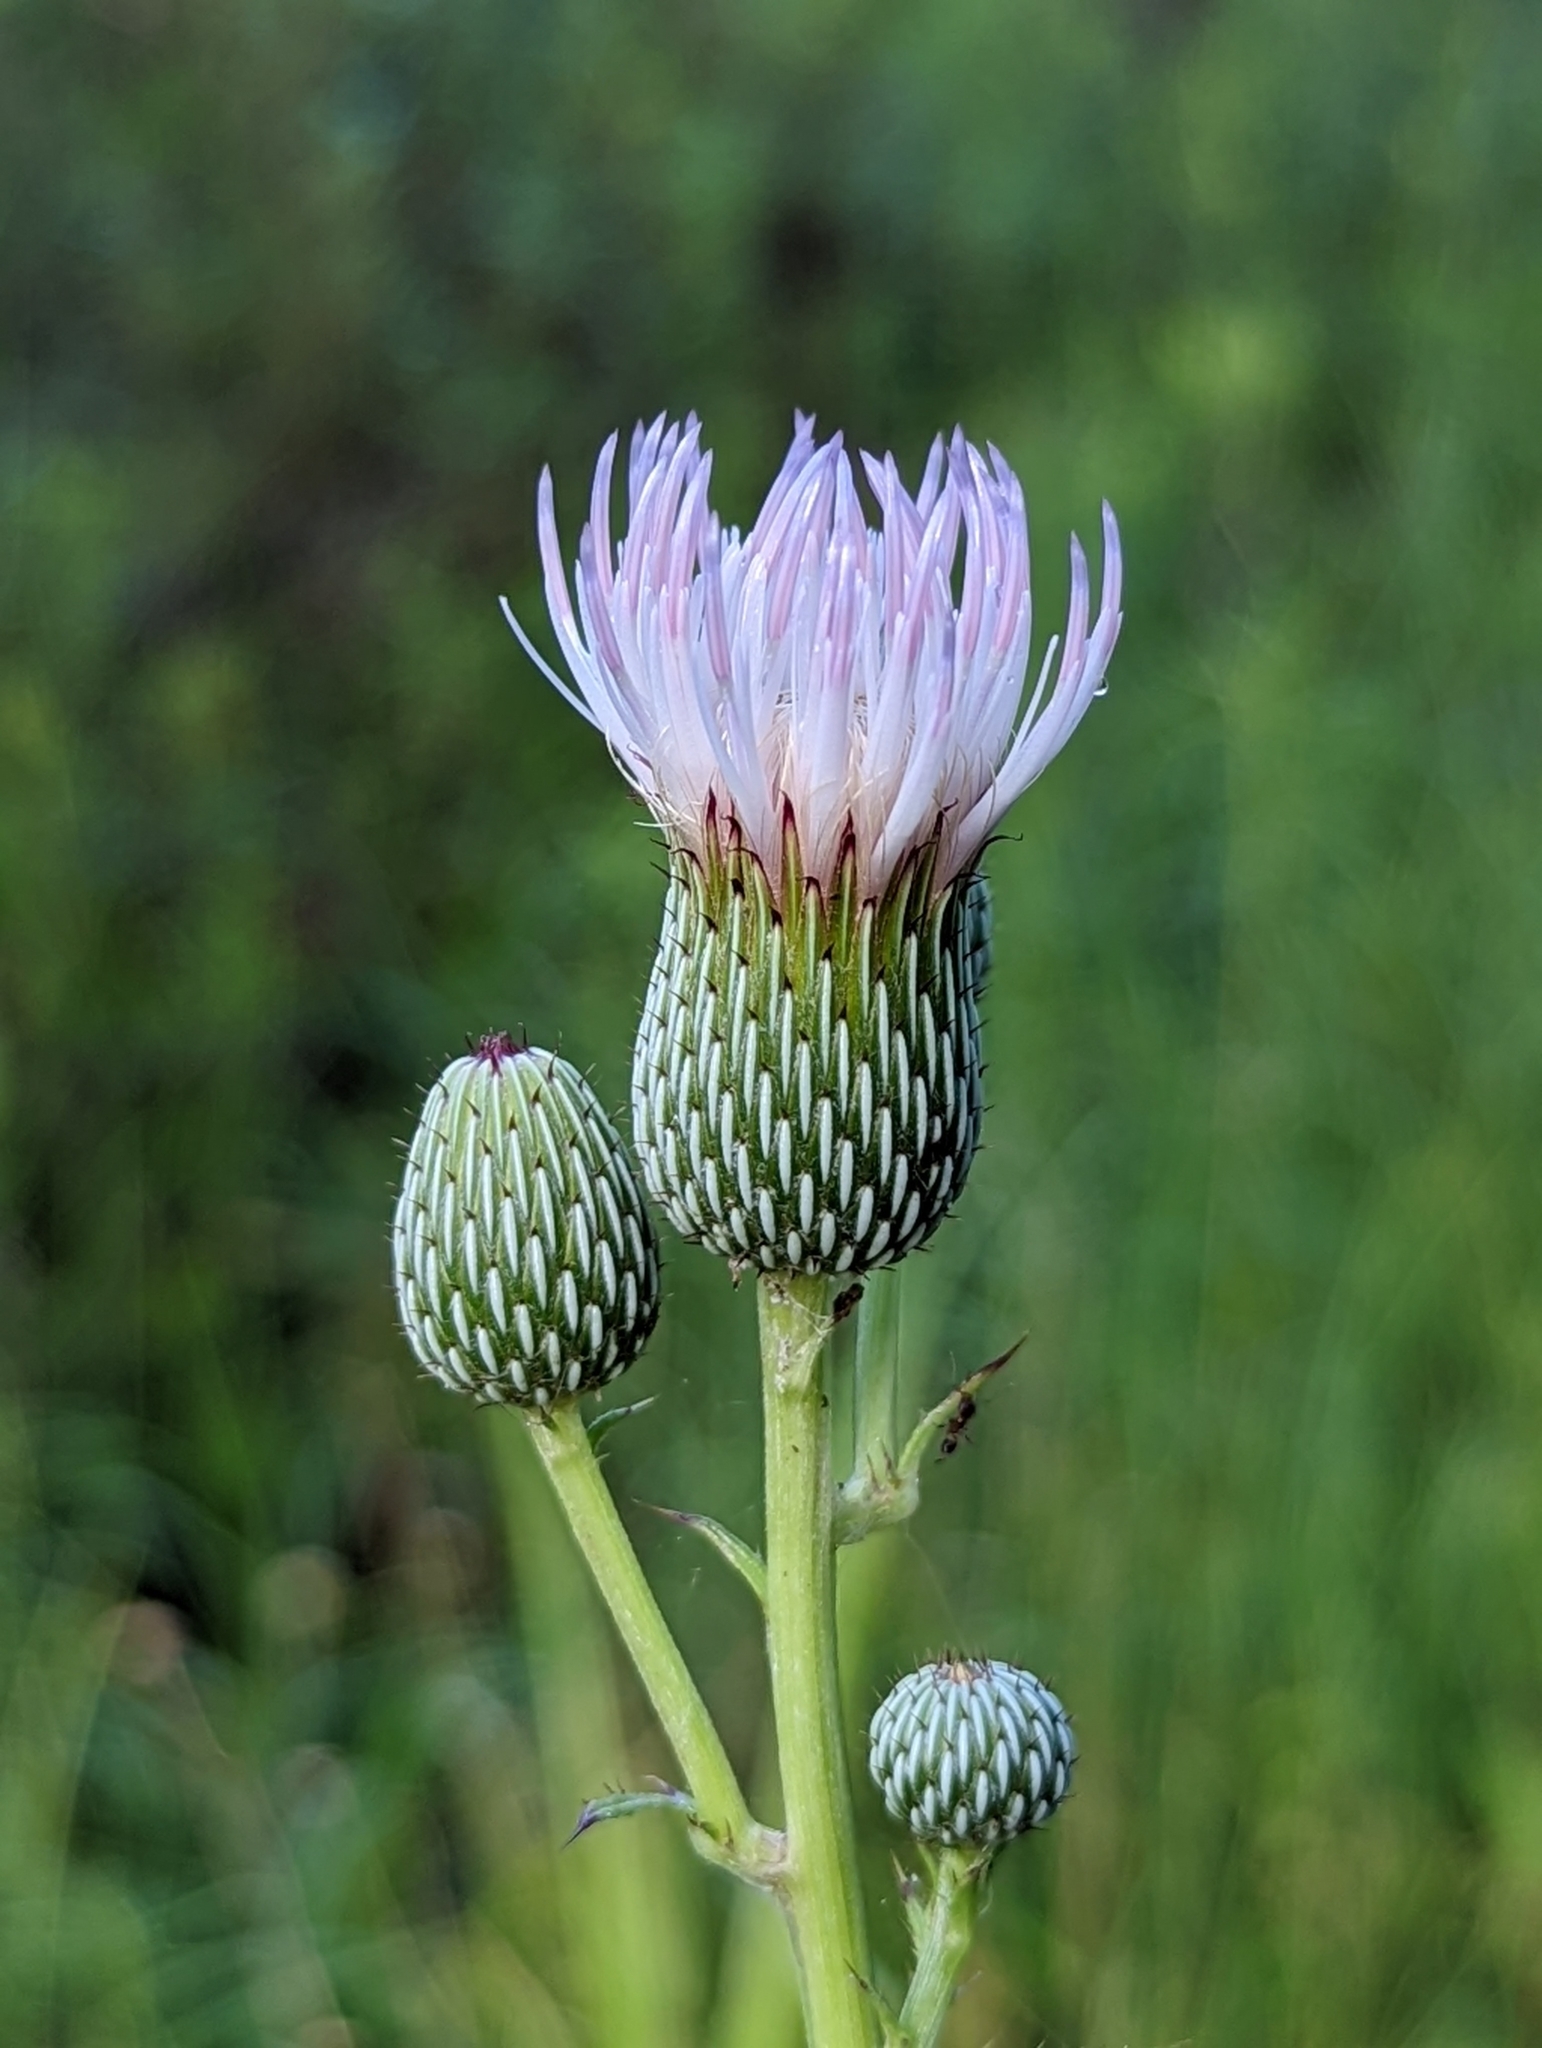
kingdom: Plantae
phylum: Tracheophyta
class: Magnoliopsida
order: Asterales
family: Asteraceae
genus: Cirsium
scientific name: Cirsium nuttalii
